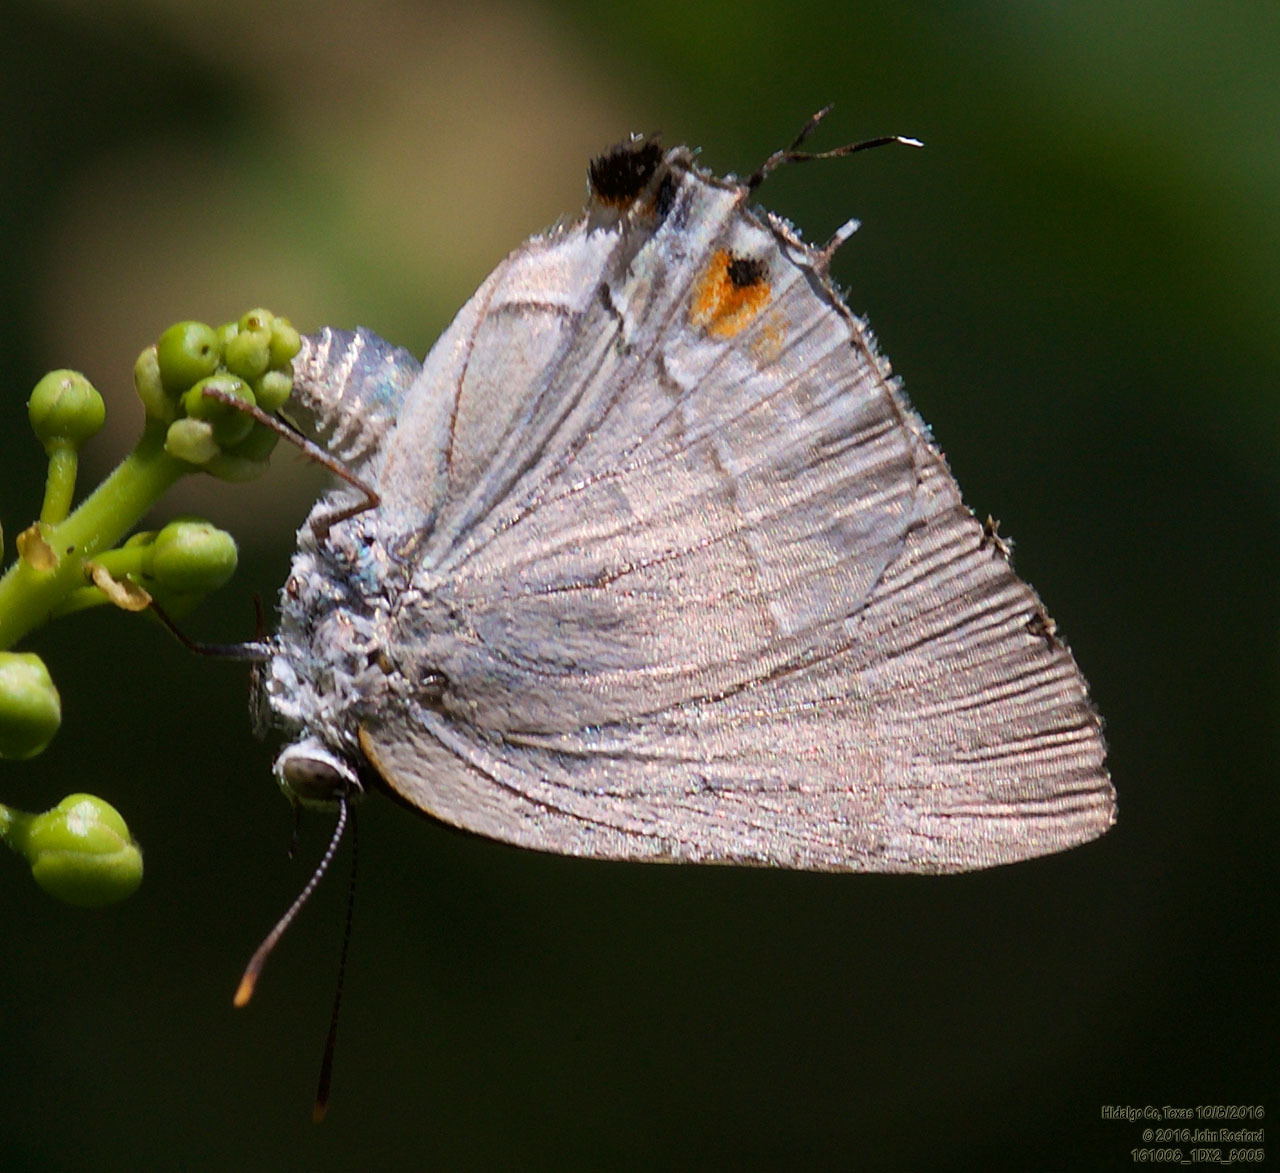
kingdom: Animalia
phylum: Arthropoda
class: Insecta
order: Lepidoptera
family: Lycaenidae
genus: Thecla
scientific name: Thecla marius
